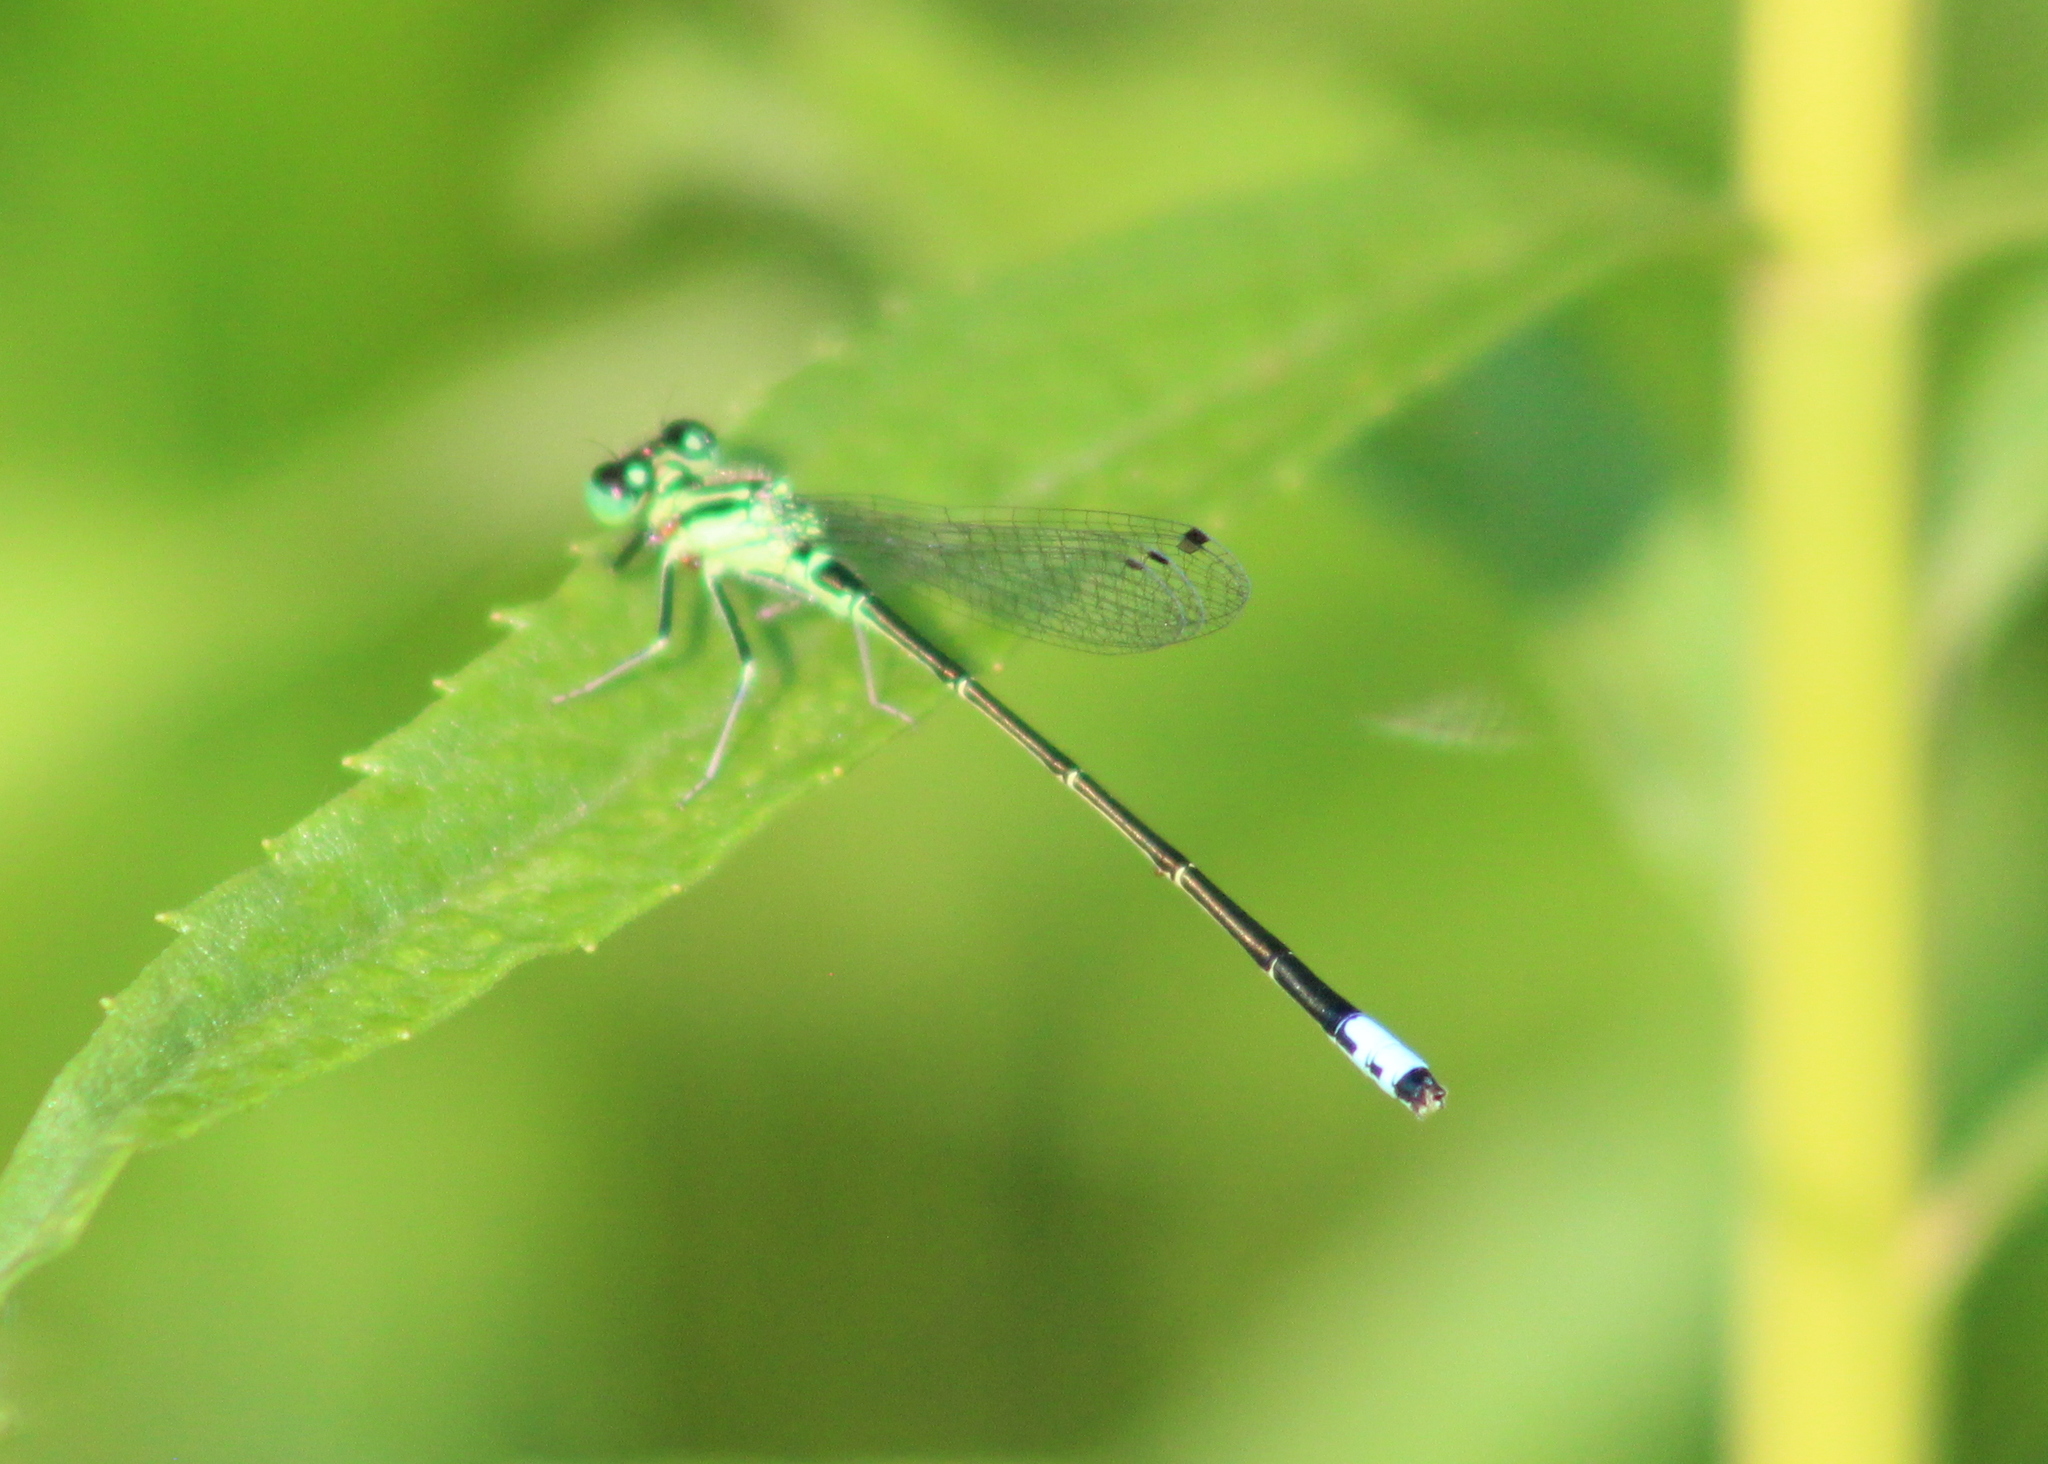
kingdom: Animalia
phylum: Arthropoda
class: Insecta
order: Odonata
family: Coenagrionidae
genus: Ischnura
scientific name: Ischnura verticalis
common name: Eastern forktail
